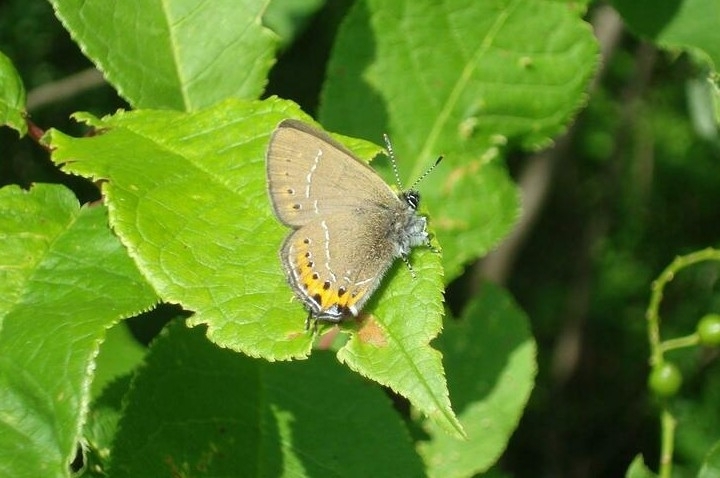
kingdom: Animalia
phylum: Arthropoda
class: Insecta
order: Lepidoptera
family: Lycaenidae
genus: Fixsenia
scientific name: Fixsenia pruni
